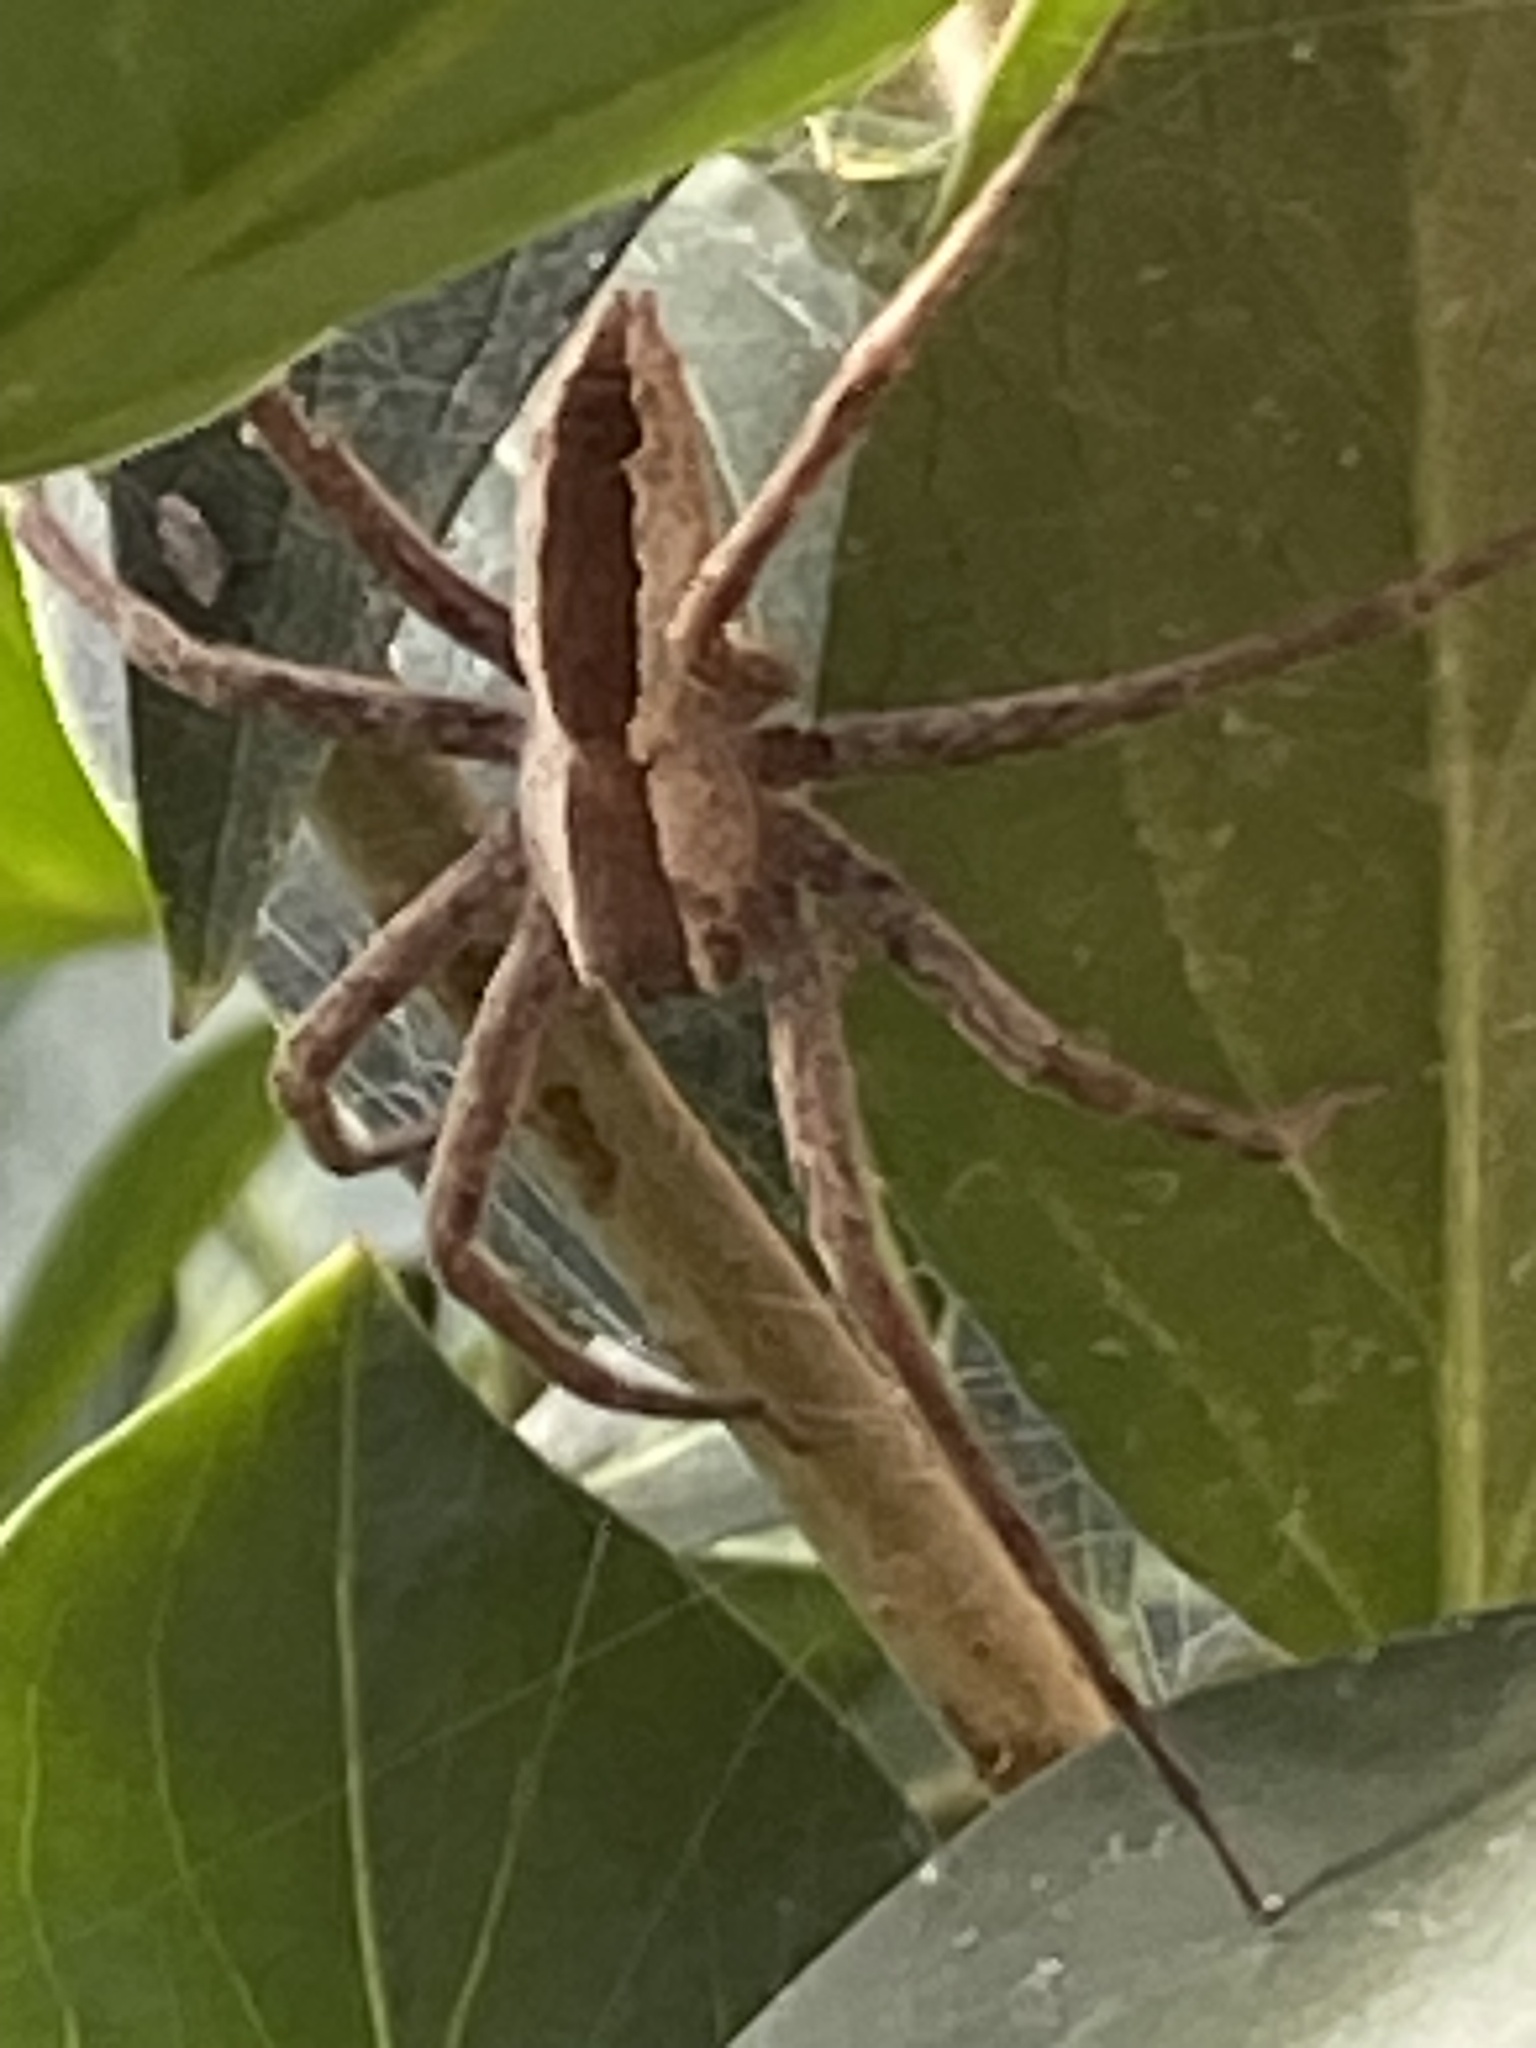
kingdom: Animalia
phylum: Arthropoda
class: Arachnida
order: Araneae
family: Pisauridae
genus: Pisaurina
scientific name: Pisaurina mira
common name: American nursery web spider
